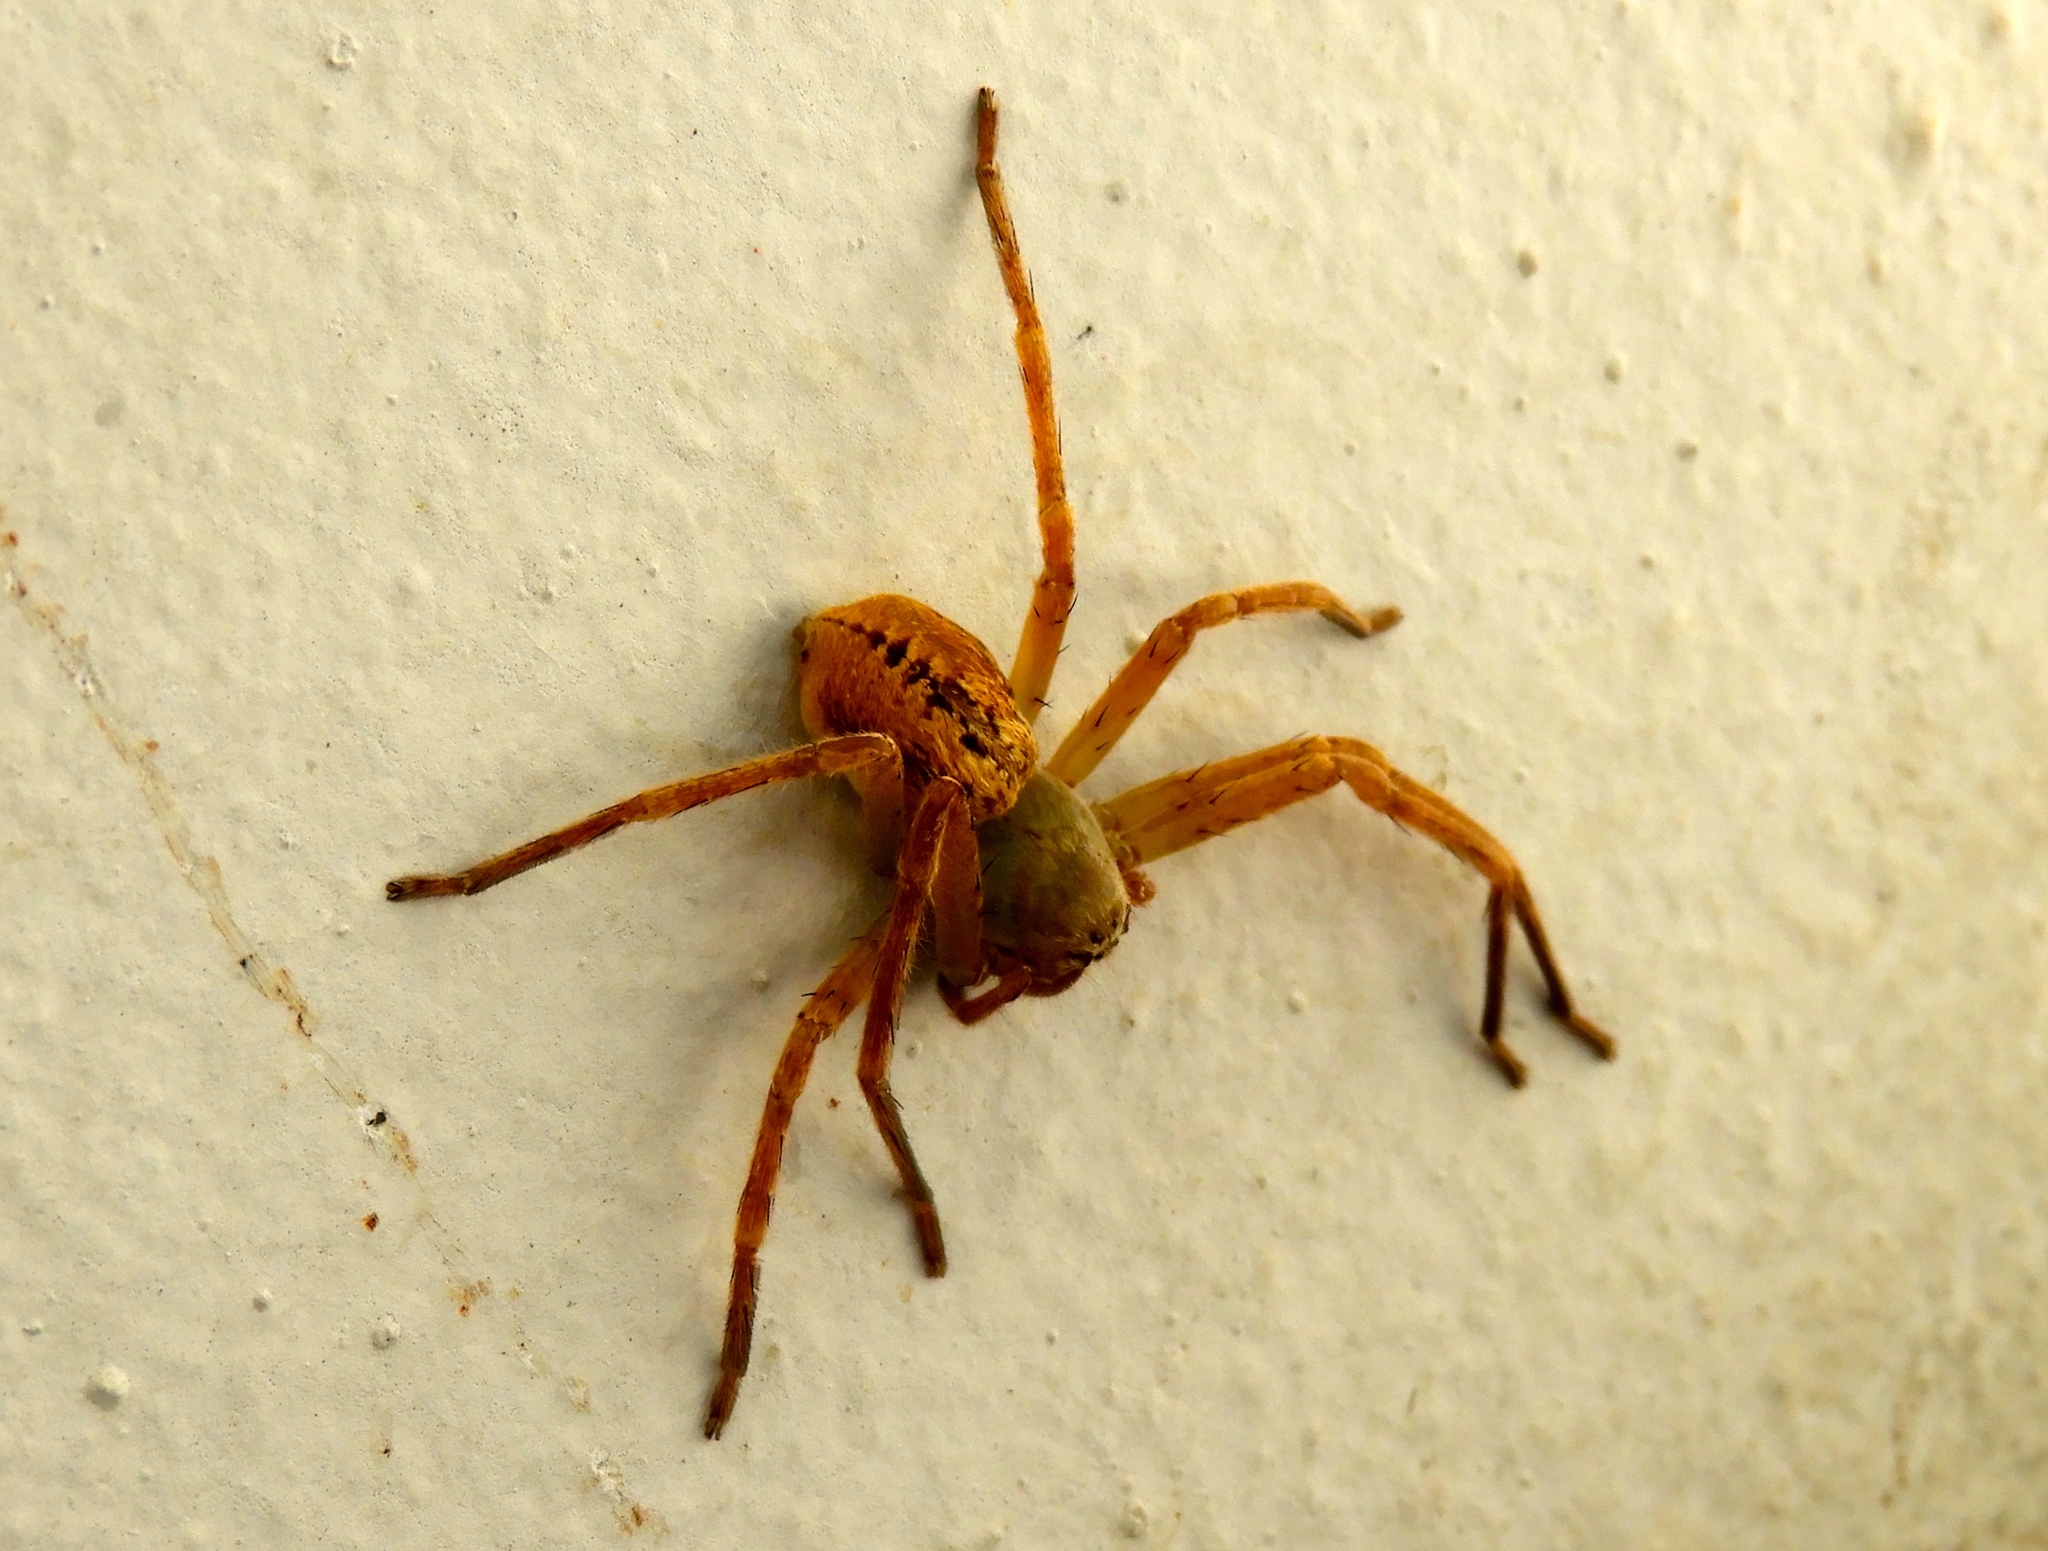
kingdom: Animalia
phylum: Arthropoda
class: Arachnida
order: Araneae
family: Sparassidae
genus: Curicaberis
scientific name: Curicaberis culiacan
